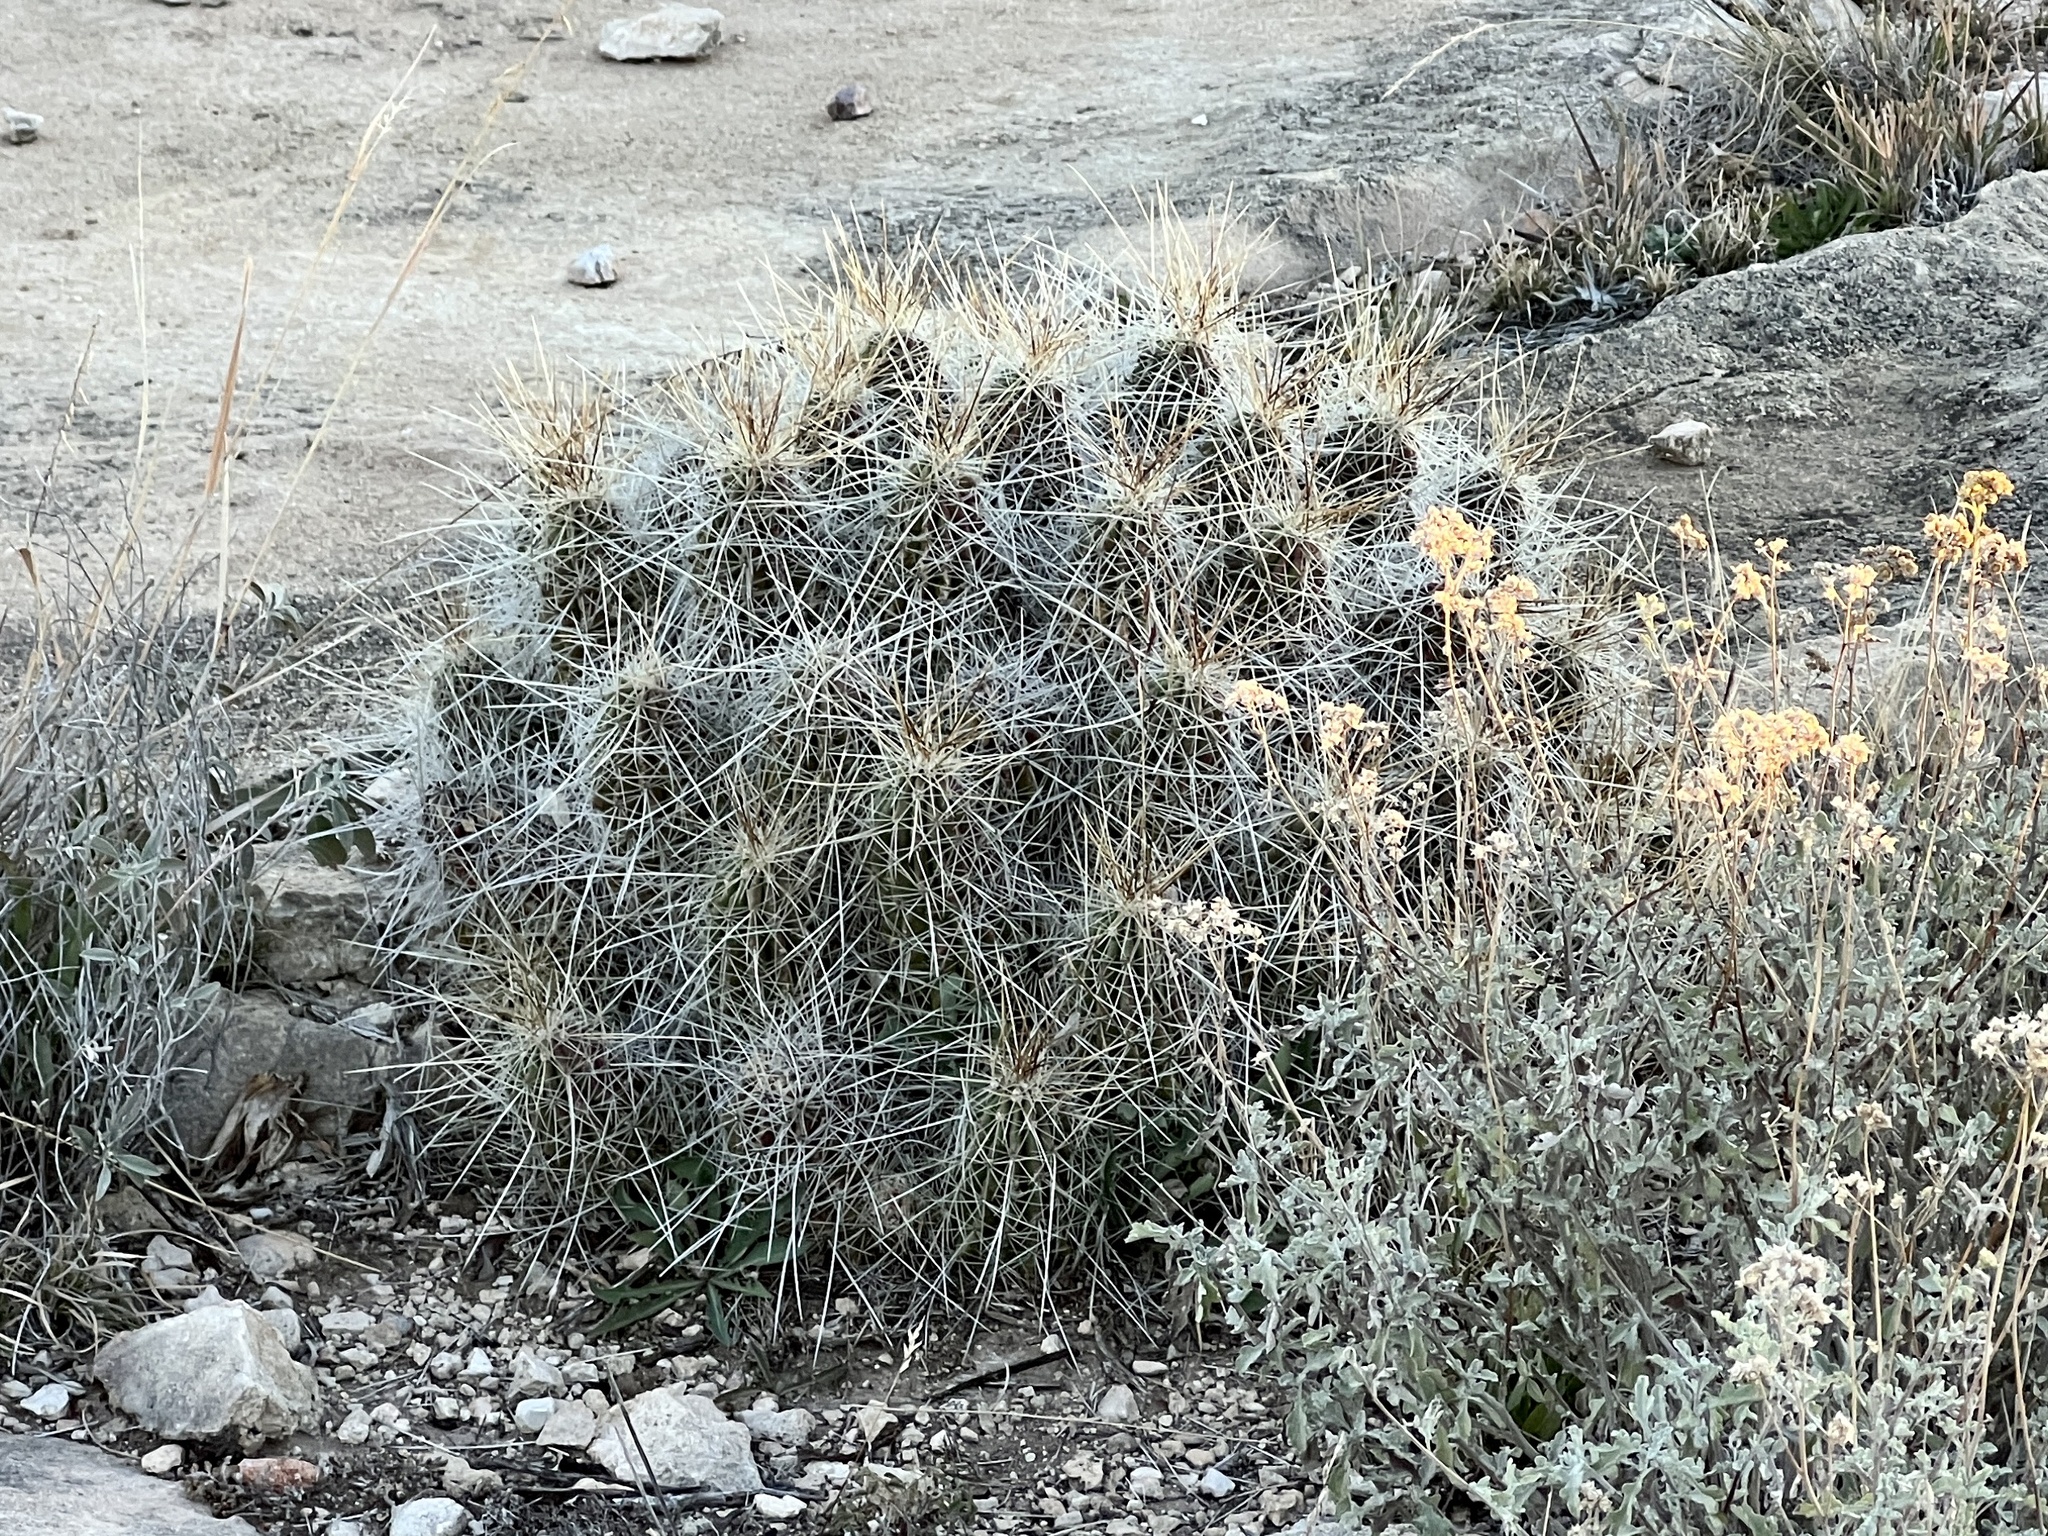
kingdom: Plantae
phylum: Tracheophyta
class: Magnoliopsida
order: Caryophyllales
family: Cactaceae
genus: Echinocereus
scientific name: Echinocereus stramineus
